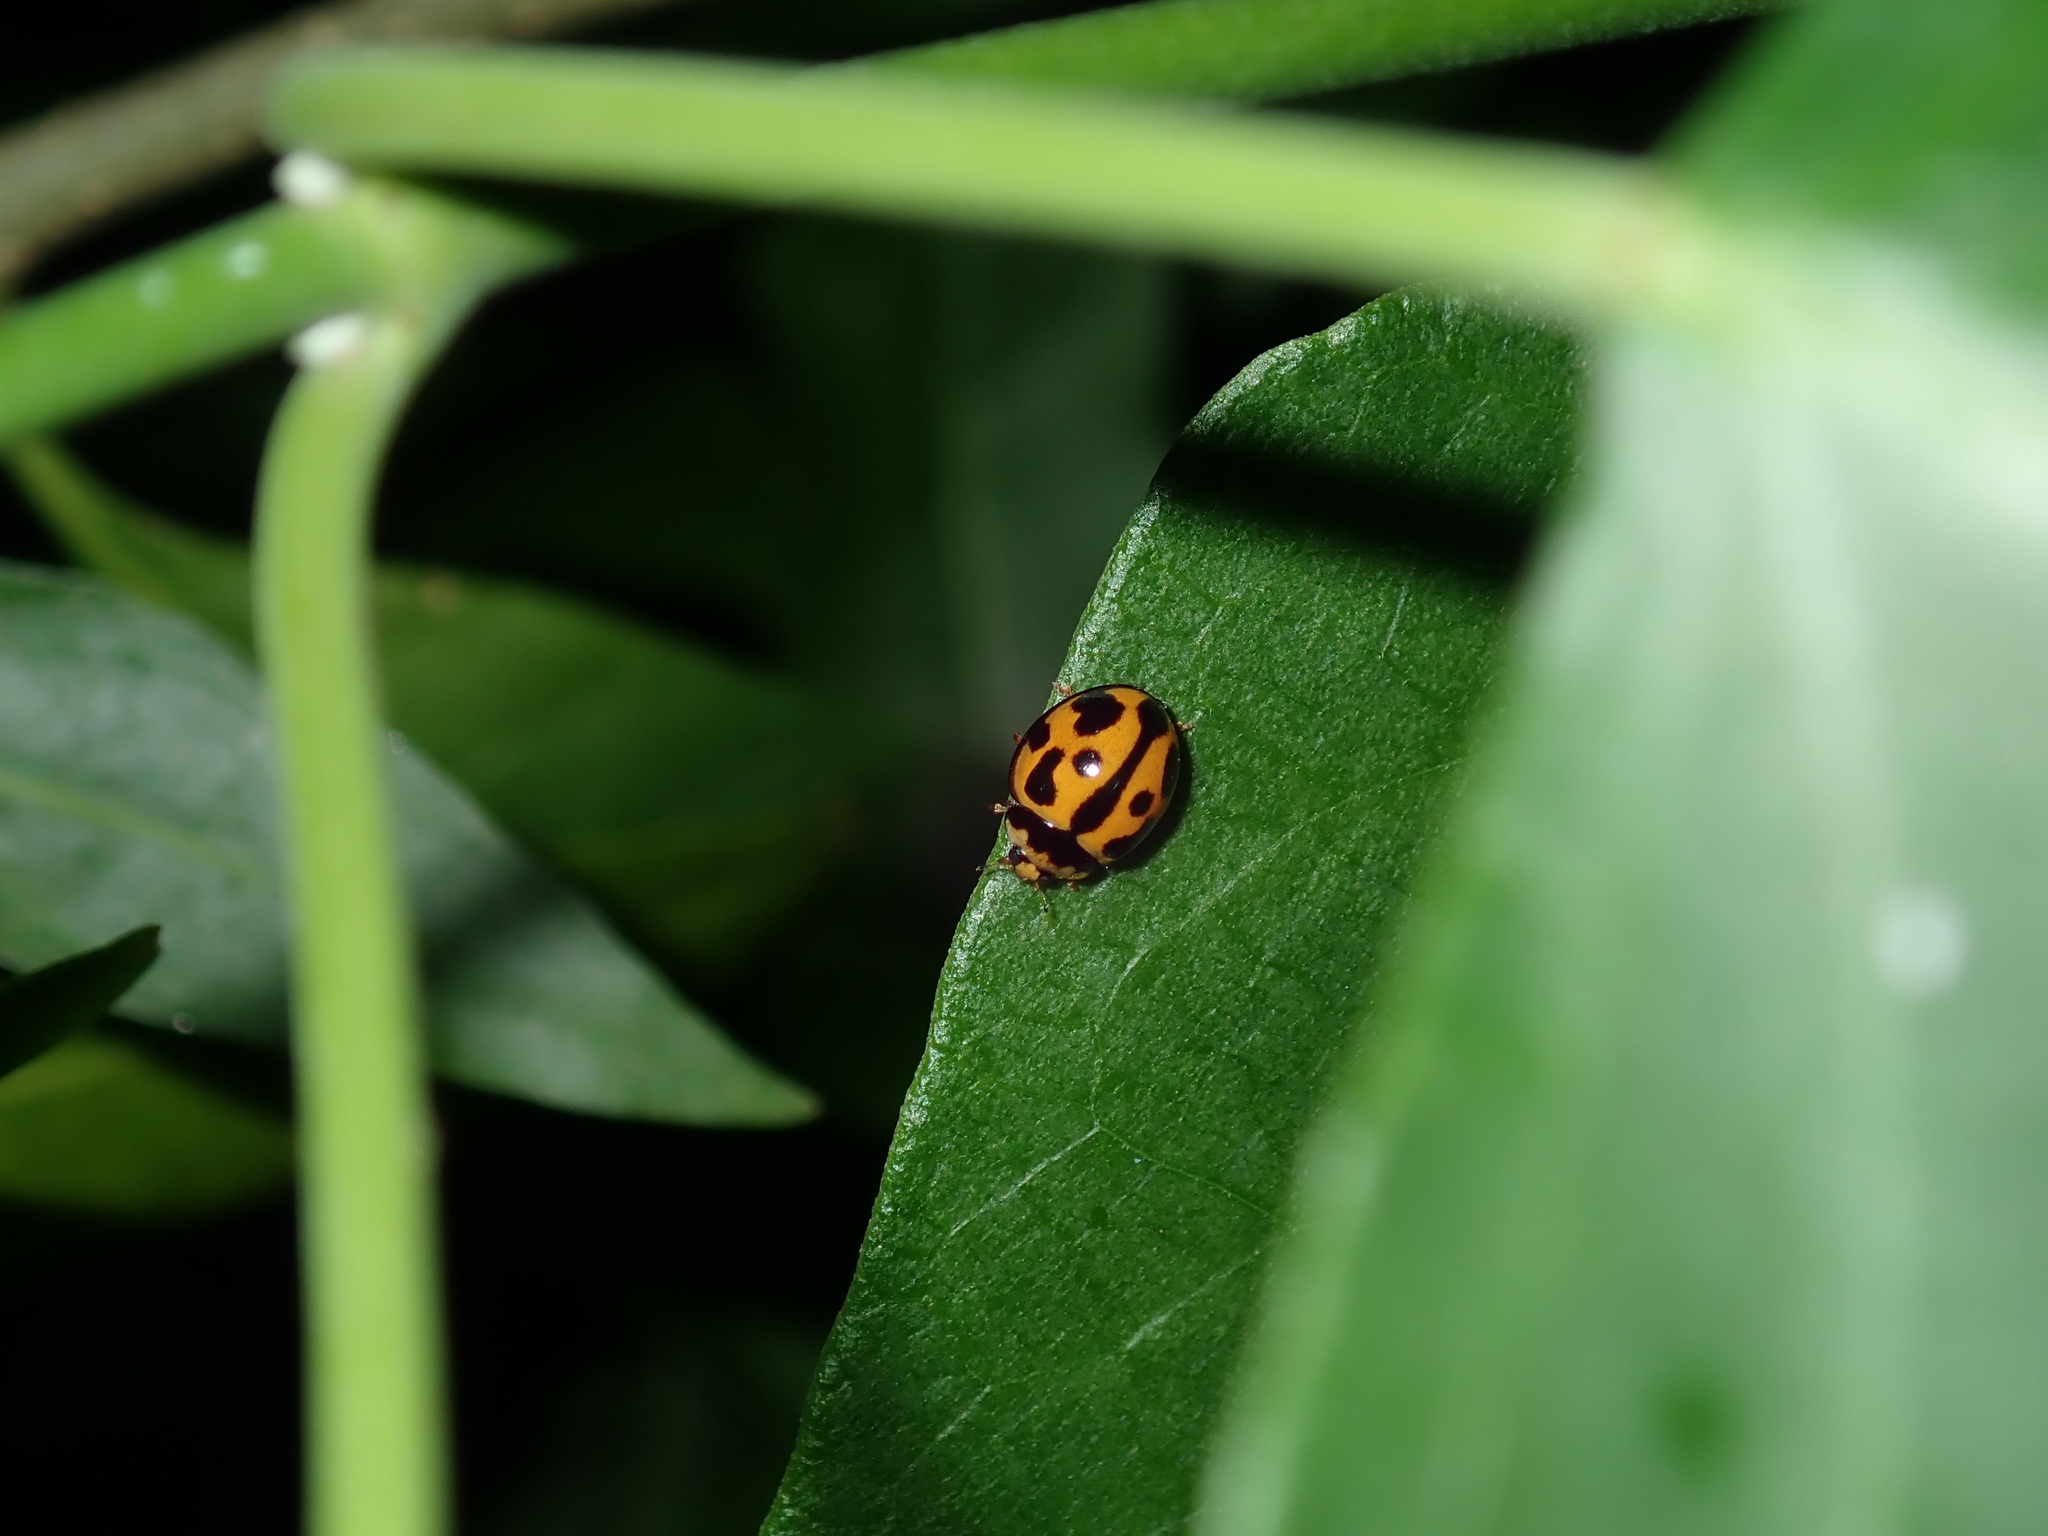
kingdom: Animalia
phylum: Arthropoda
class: Insecta
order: Coleoptera
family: Coccinellidae
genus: Coelophora
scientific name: Coelophora inaequalis
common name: Common australian lady beetle
